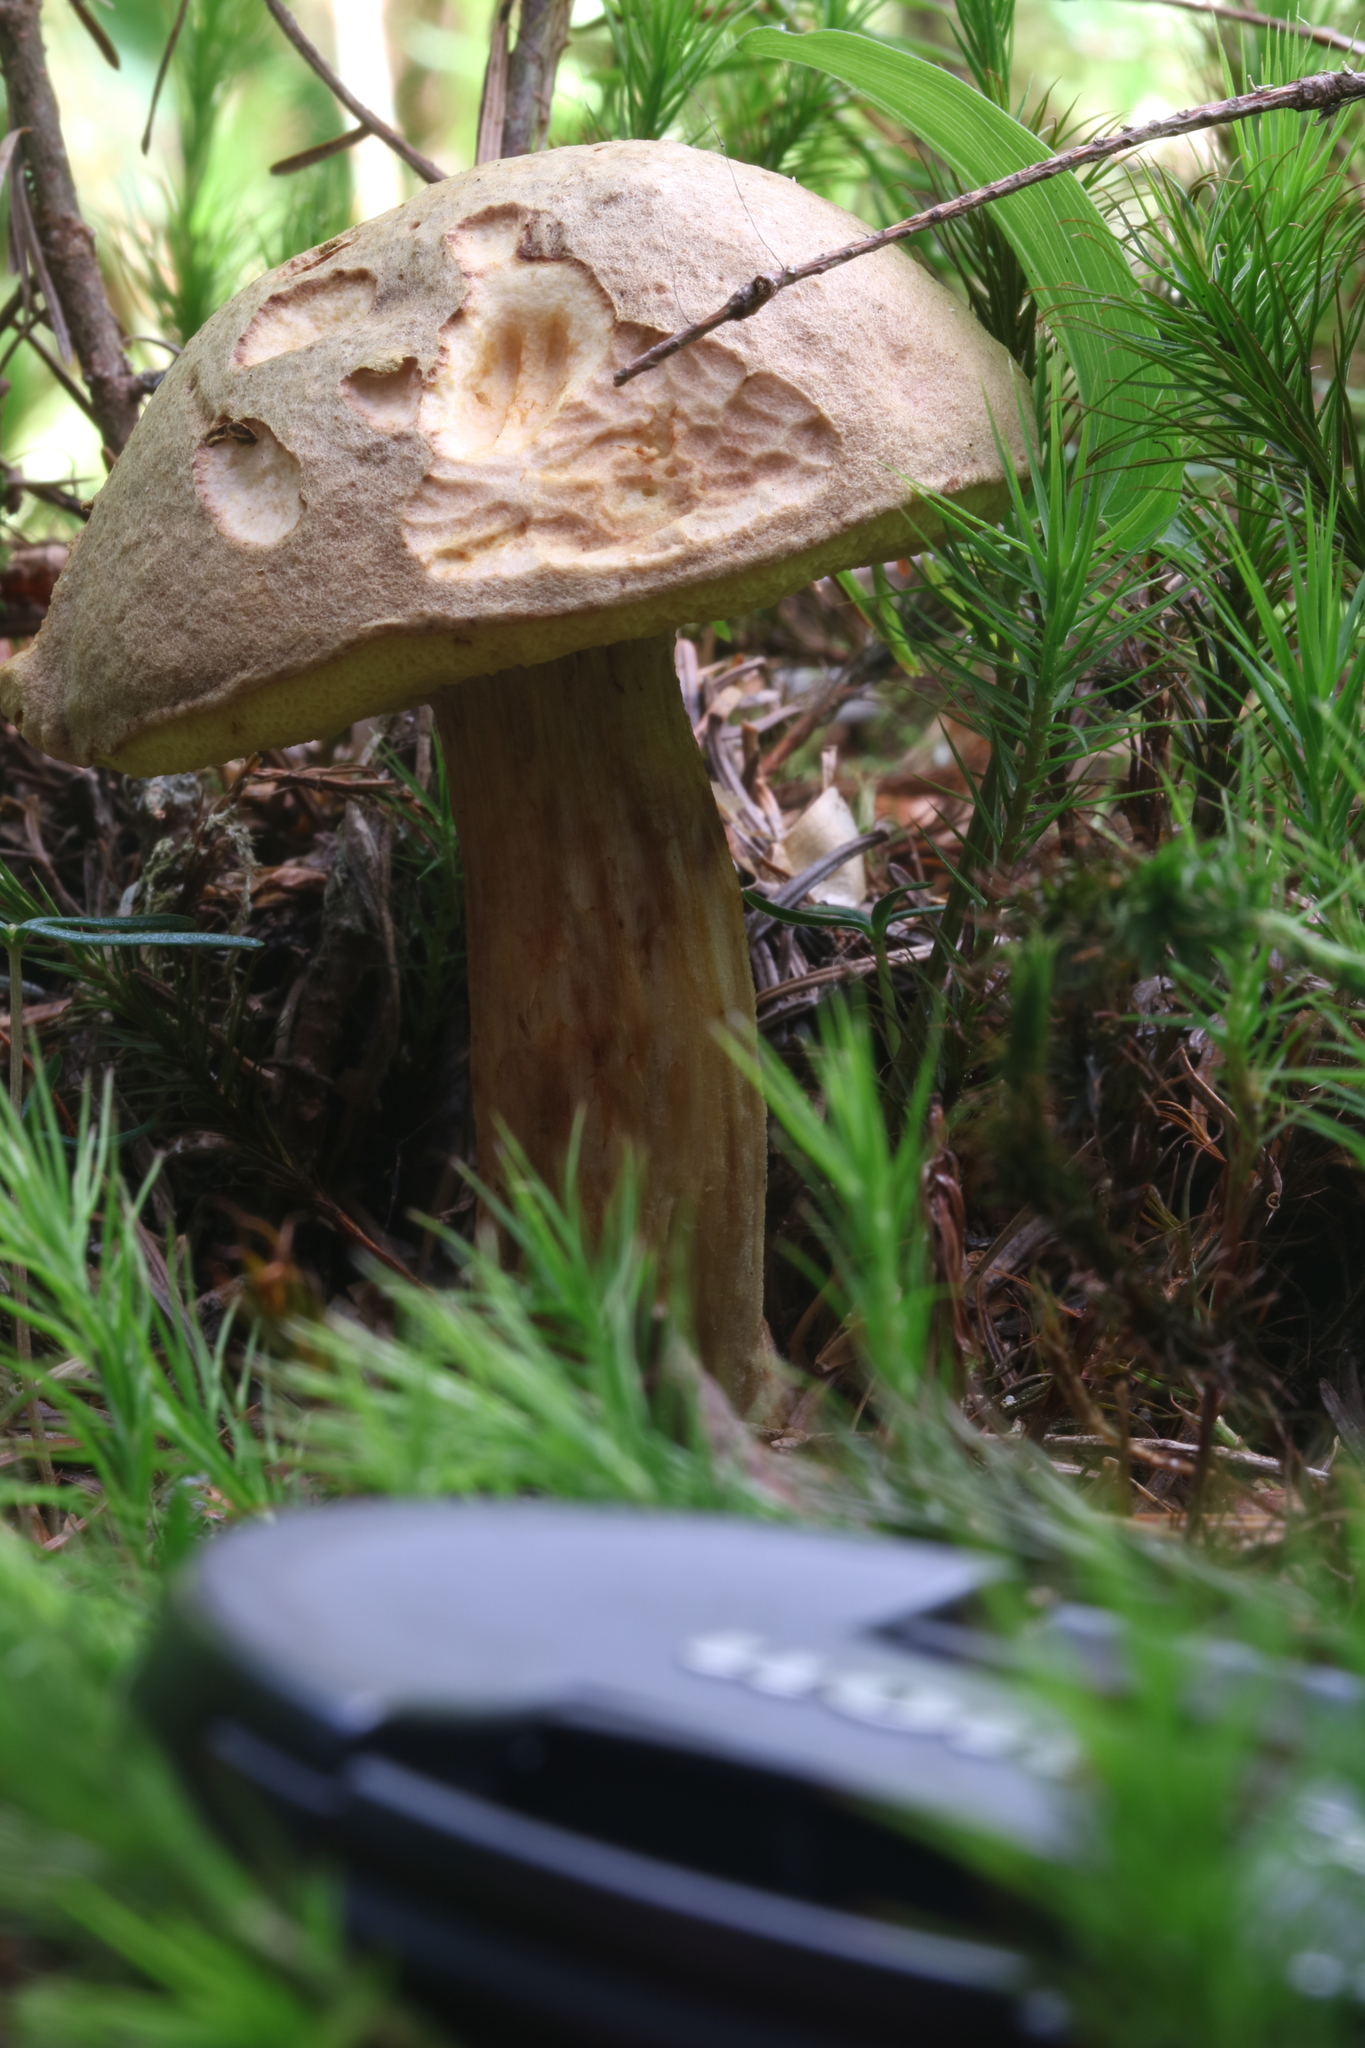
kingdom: Fungi
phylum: Basidiomycota
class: Agaricomycetes
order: Boletales
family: Boletaceae
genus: Xerocomus
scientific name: Xerocomus subtomentosus
